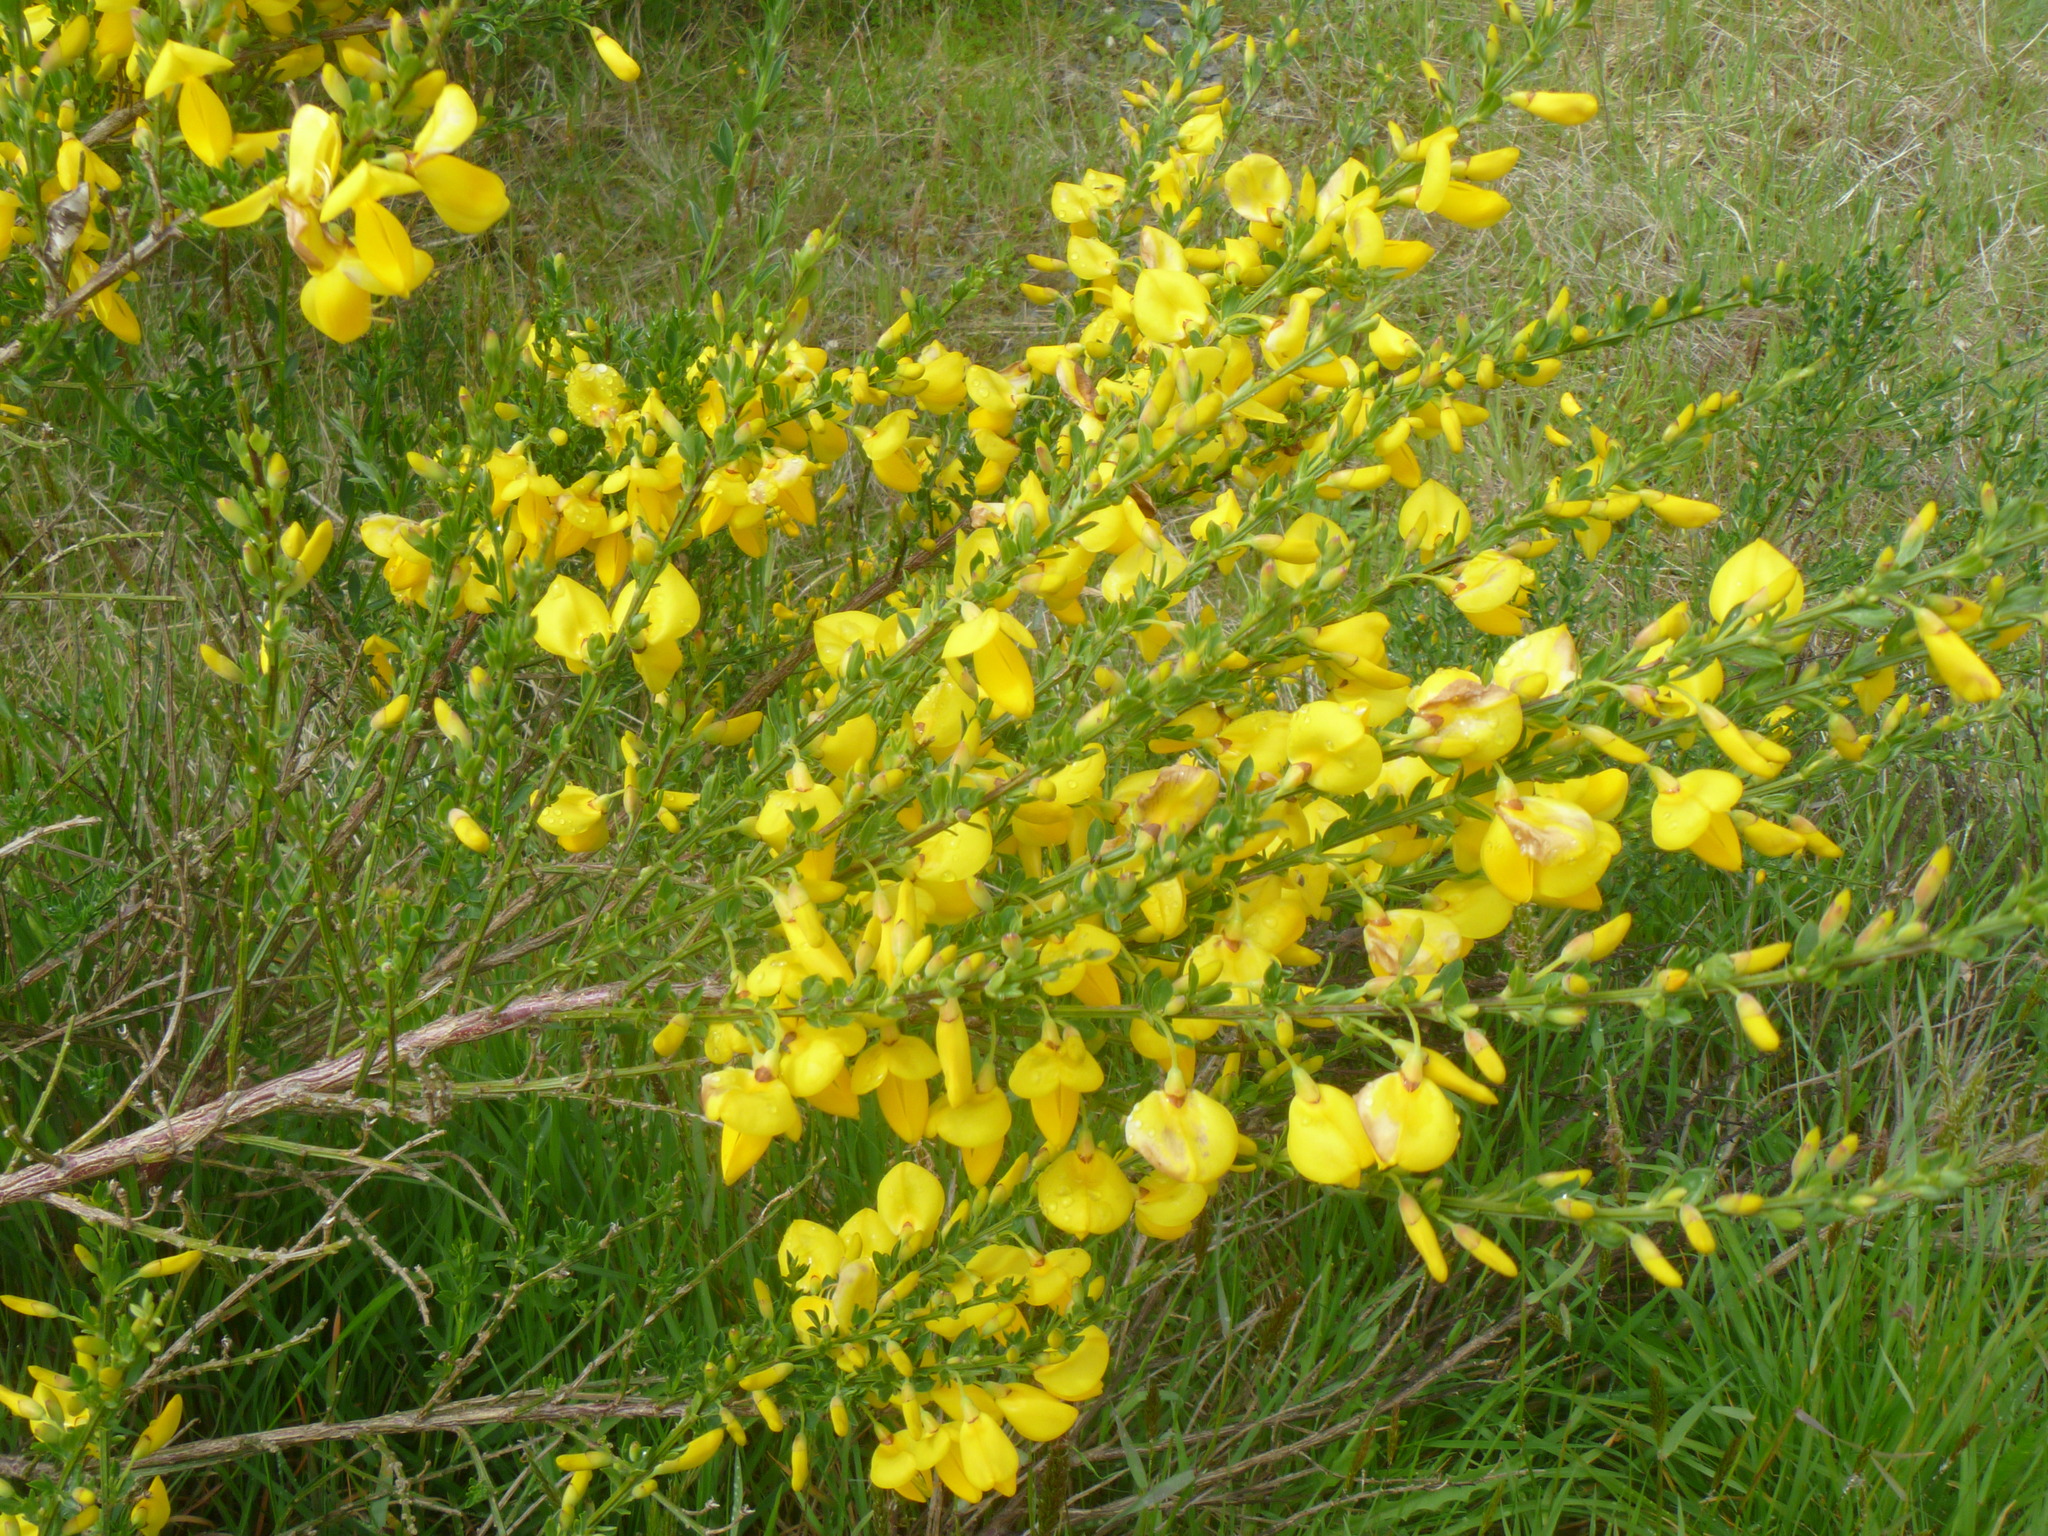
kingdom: Plantae
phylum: Tracheophyta
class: Magnoliopsida
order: Fabales
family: Fabaceae
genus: Cytisus
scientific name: Cytisus scoparius
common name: Scotch broom
